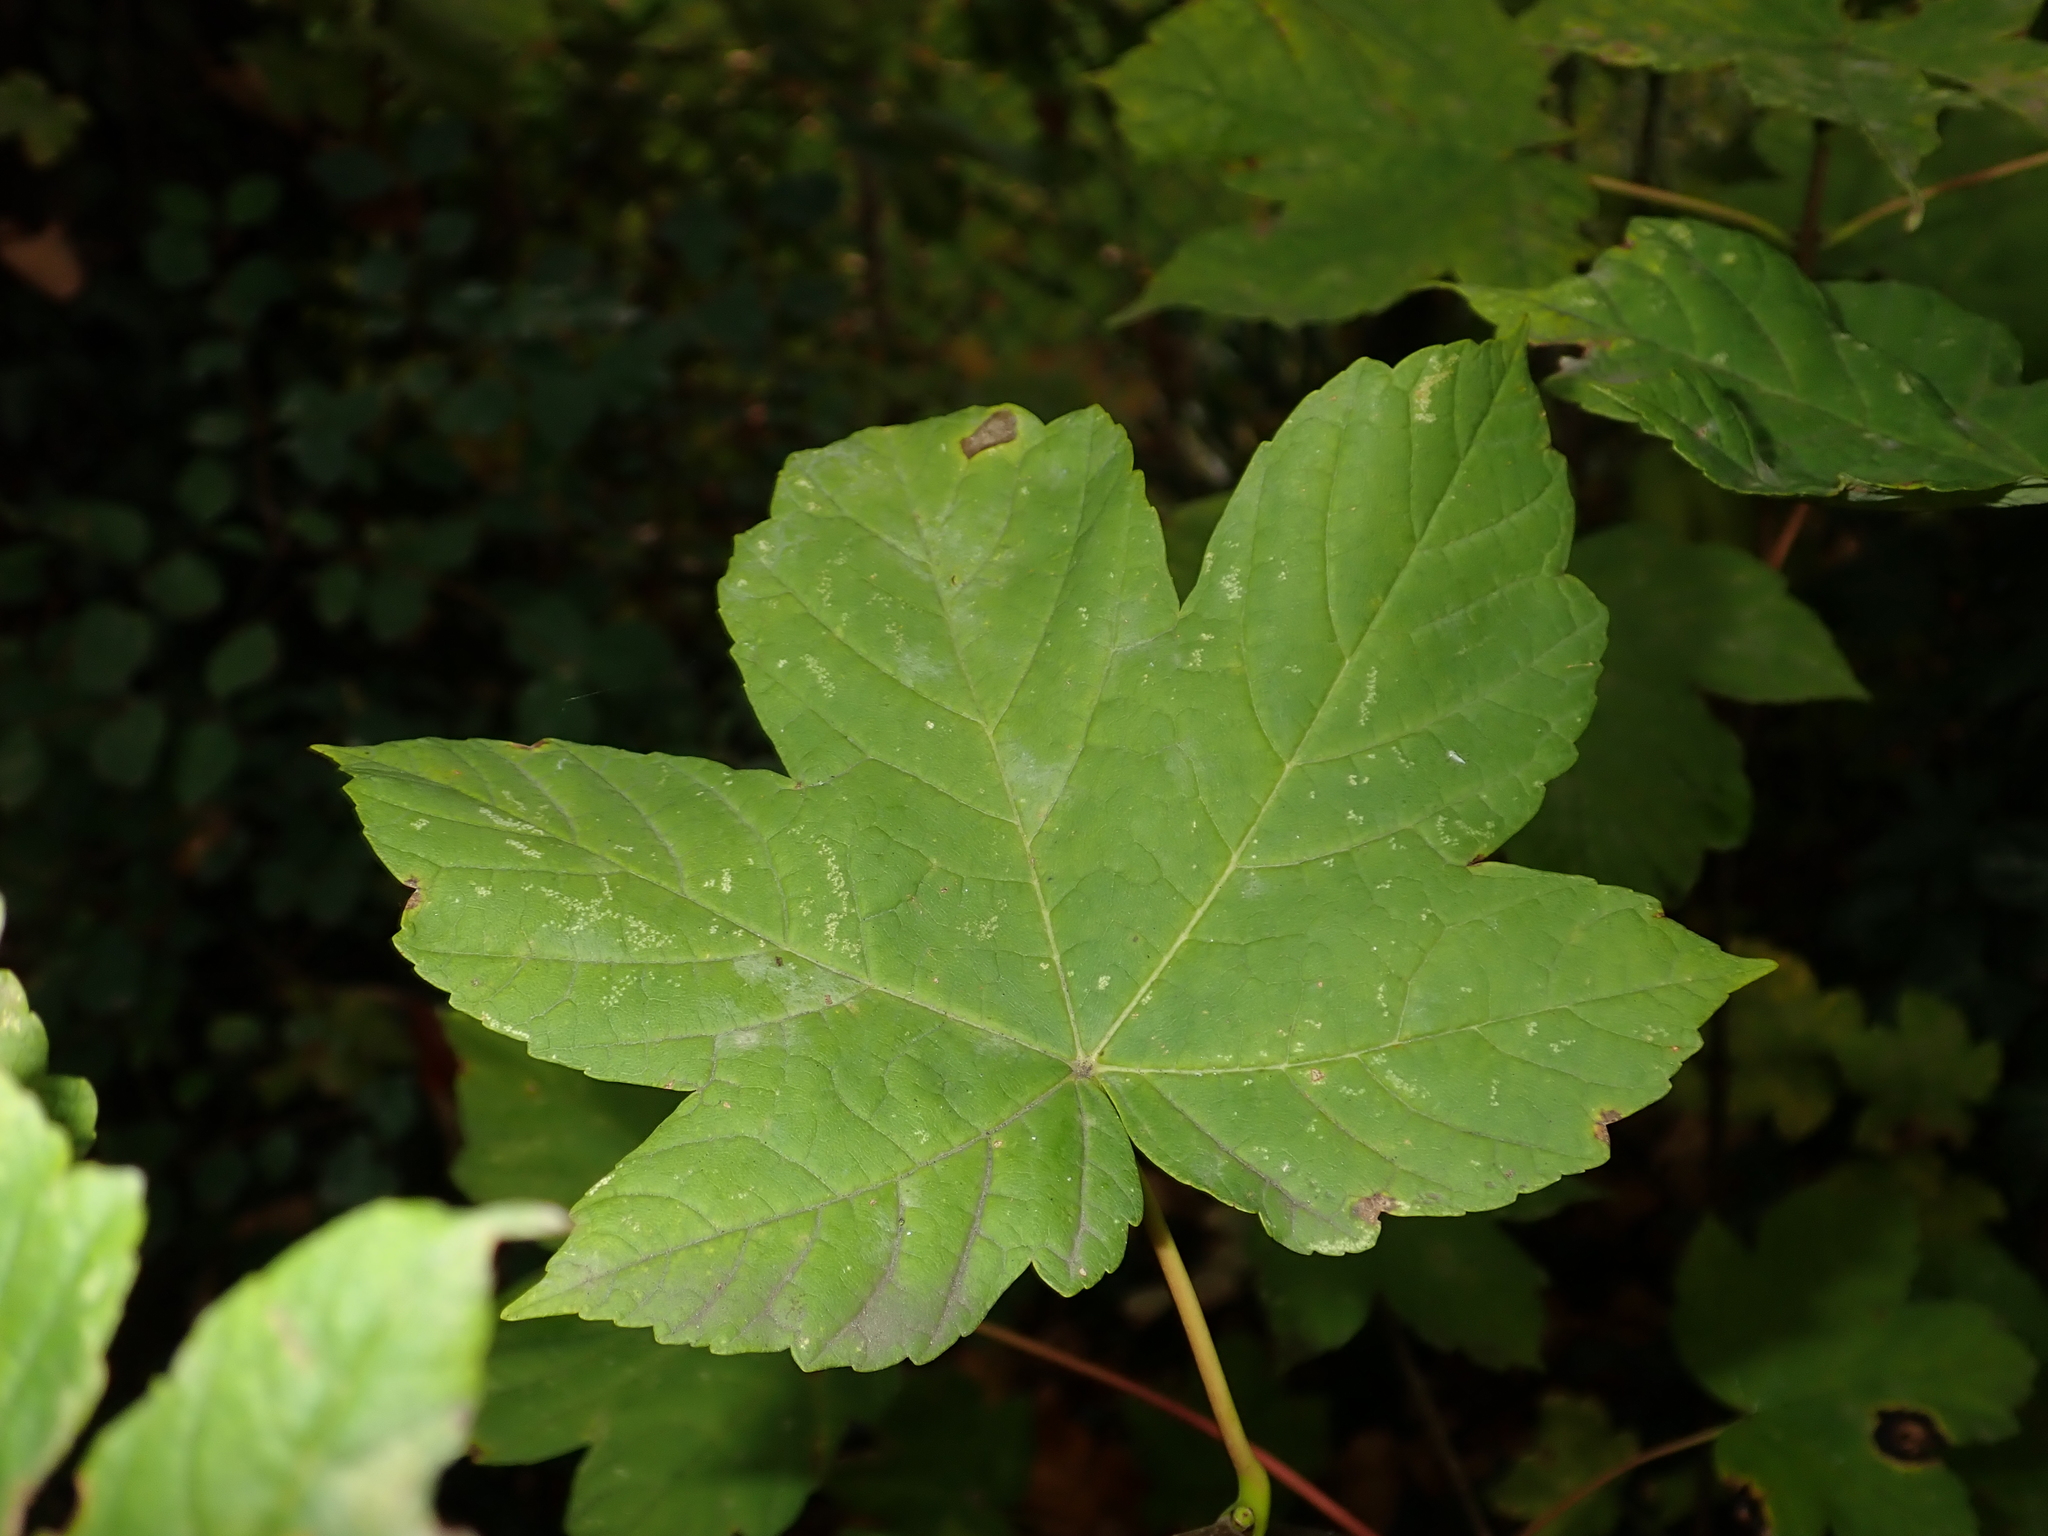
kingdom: Plantae
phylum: Tracheophyta
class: Magnoliopsida
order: Sapindales
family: Sapindaceae
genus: Acer
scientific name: Acer pseudoplatanus
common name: Sycamore
